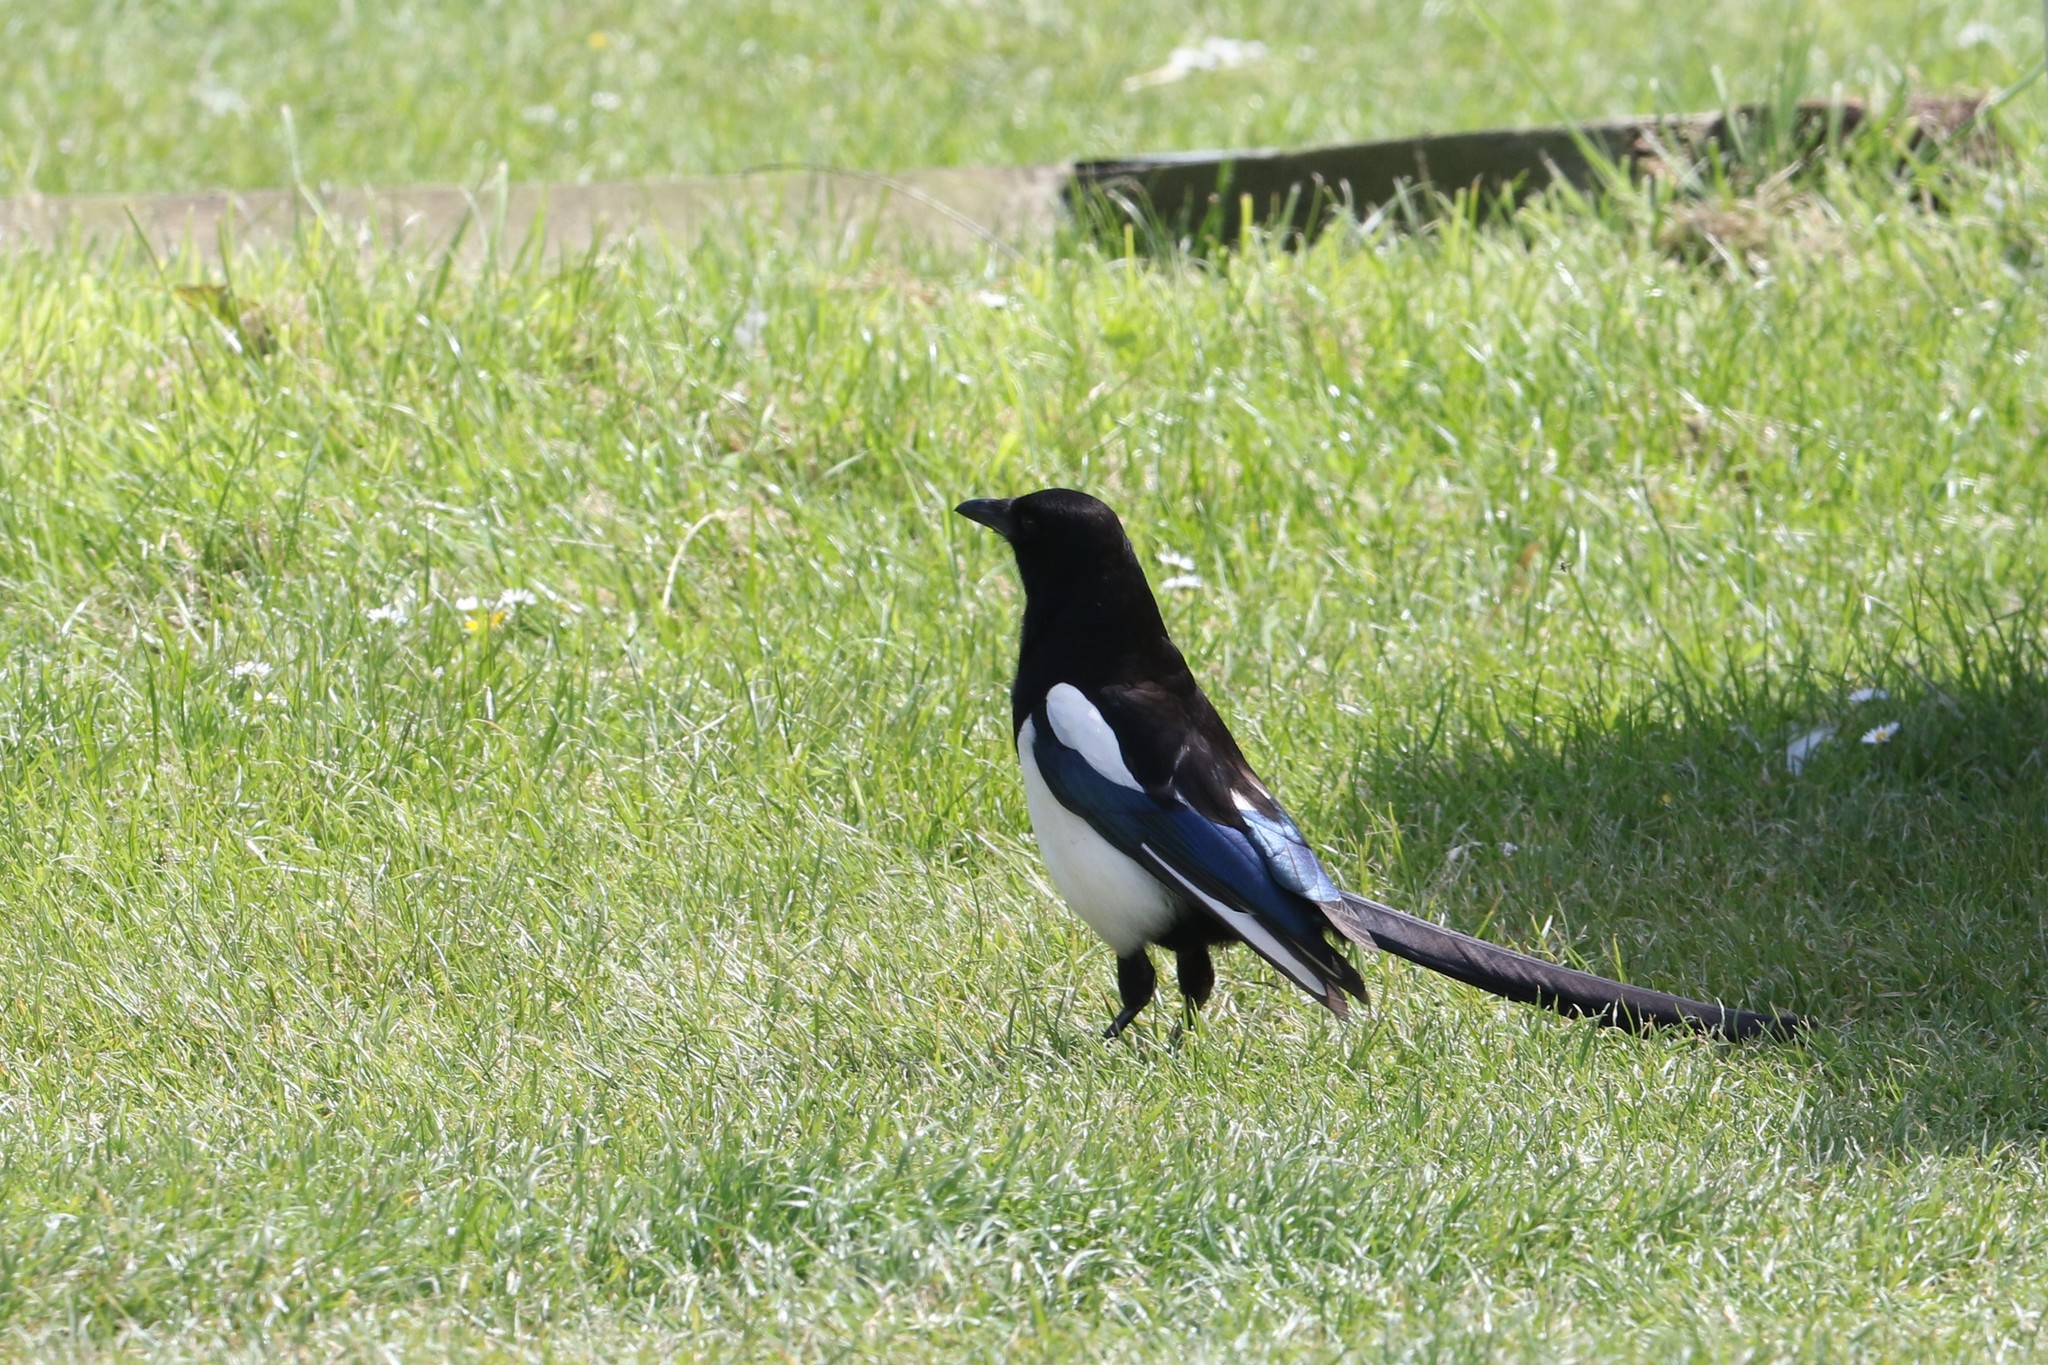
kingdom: Animalia
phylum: Chordata
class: Aves
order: Passeriformes
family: Corvidae
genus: Pica
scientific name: Pica pica
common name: Eurasian magpie
